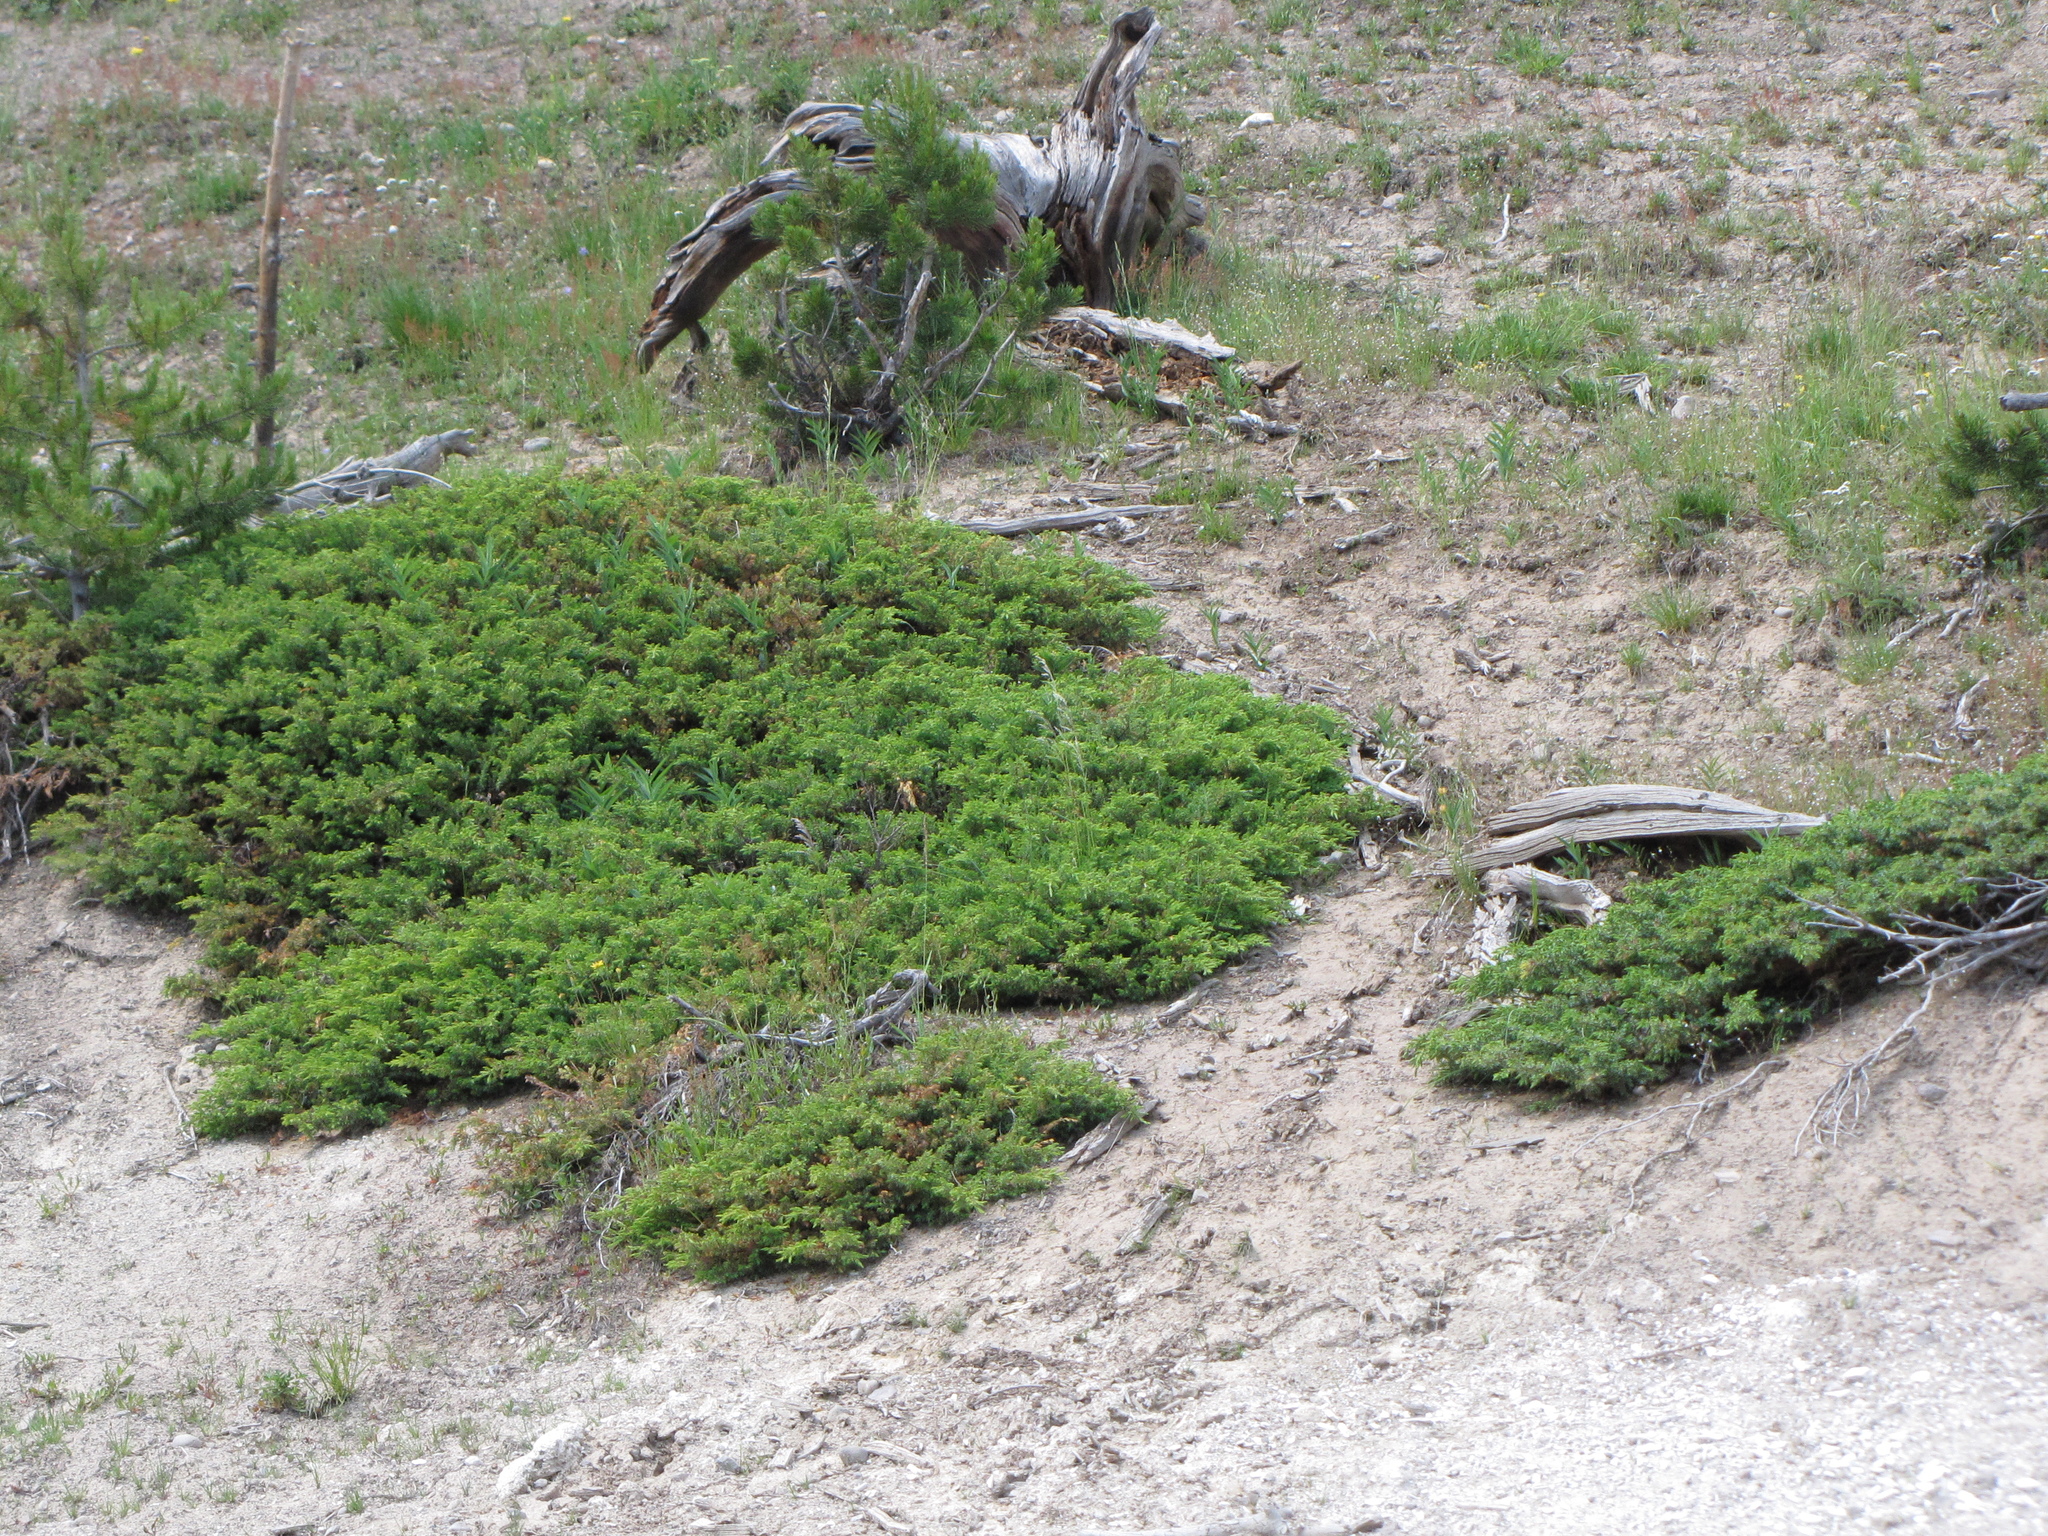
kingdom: Plantae
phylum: Tracheophyta
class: Pinopsida
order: Pinales
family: Cupressaceae
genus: Juniperus
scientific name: Juniperus communis
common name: Common juniper
